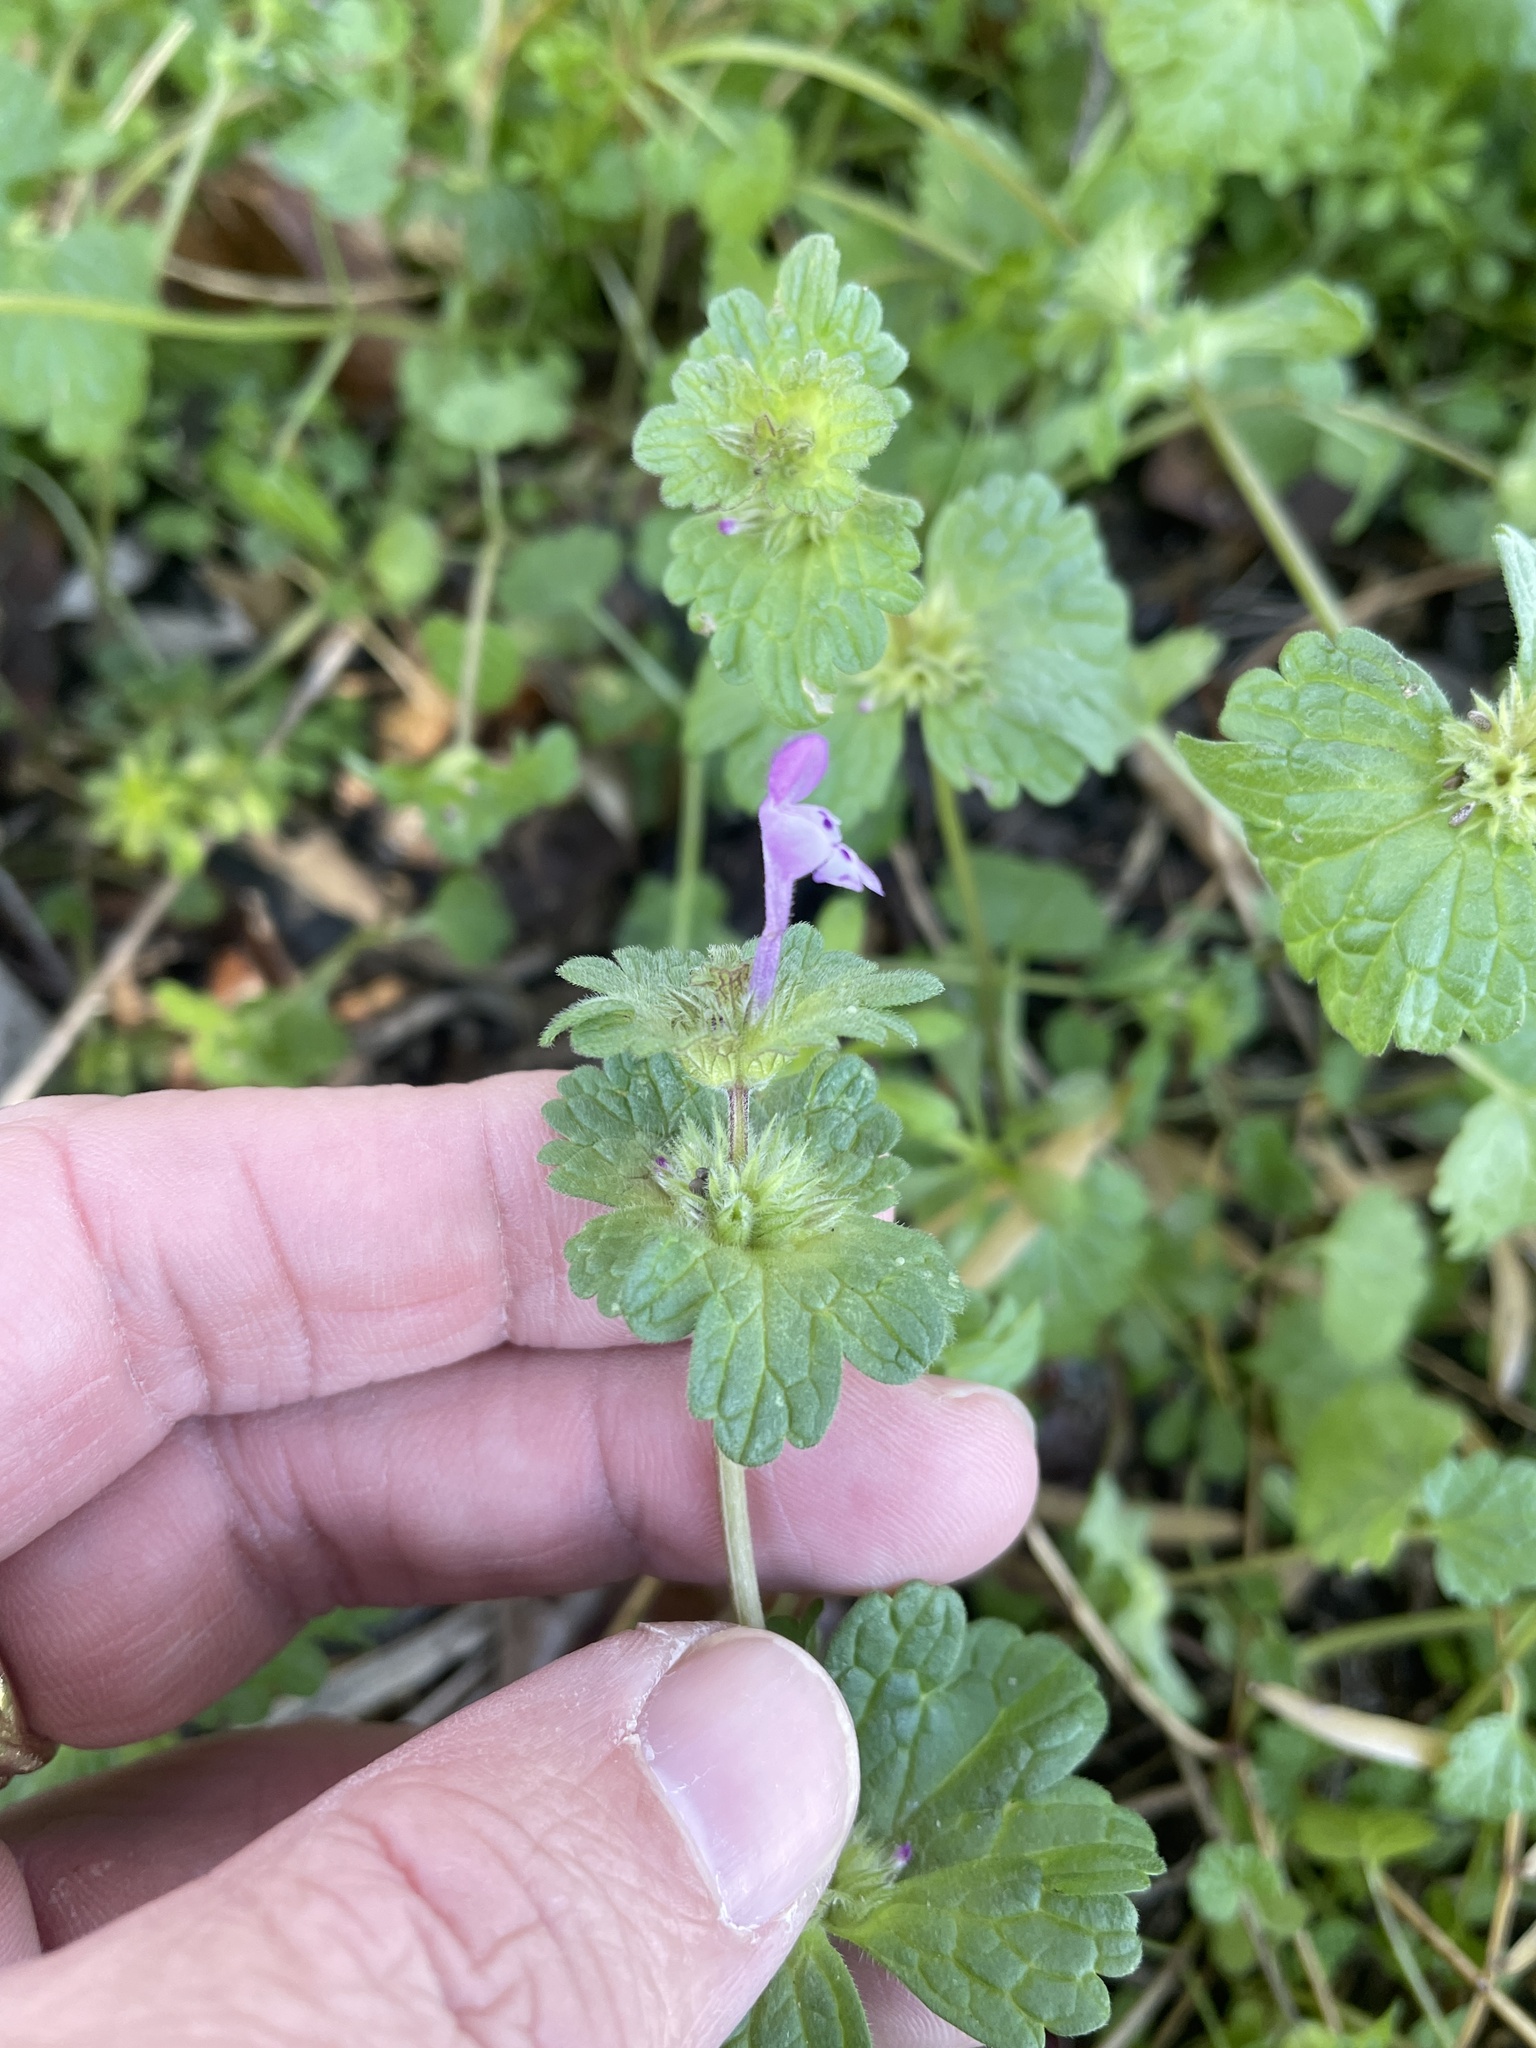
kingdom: Plantae
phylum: Tracheophyta
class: Magnoliopsida
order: Lamiales
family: Lamiaceae
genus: Lamium
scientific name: Lamium amplexicaule
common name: Henbit dead-nettle
